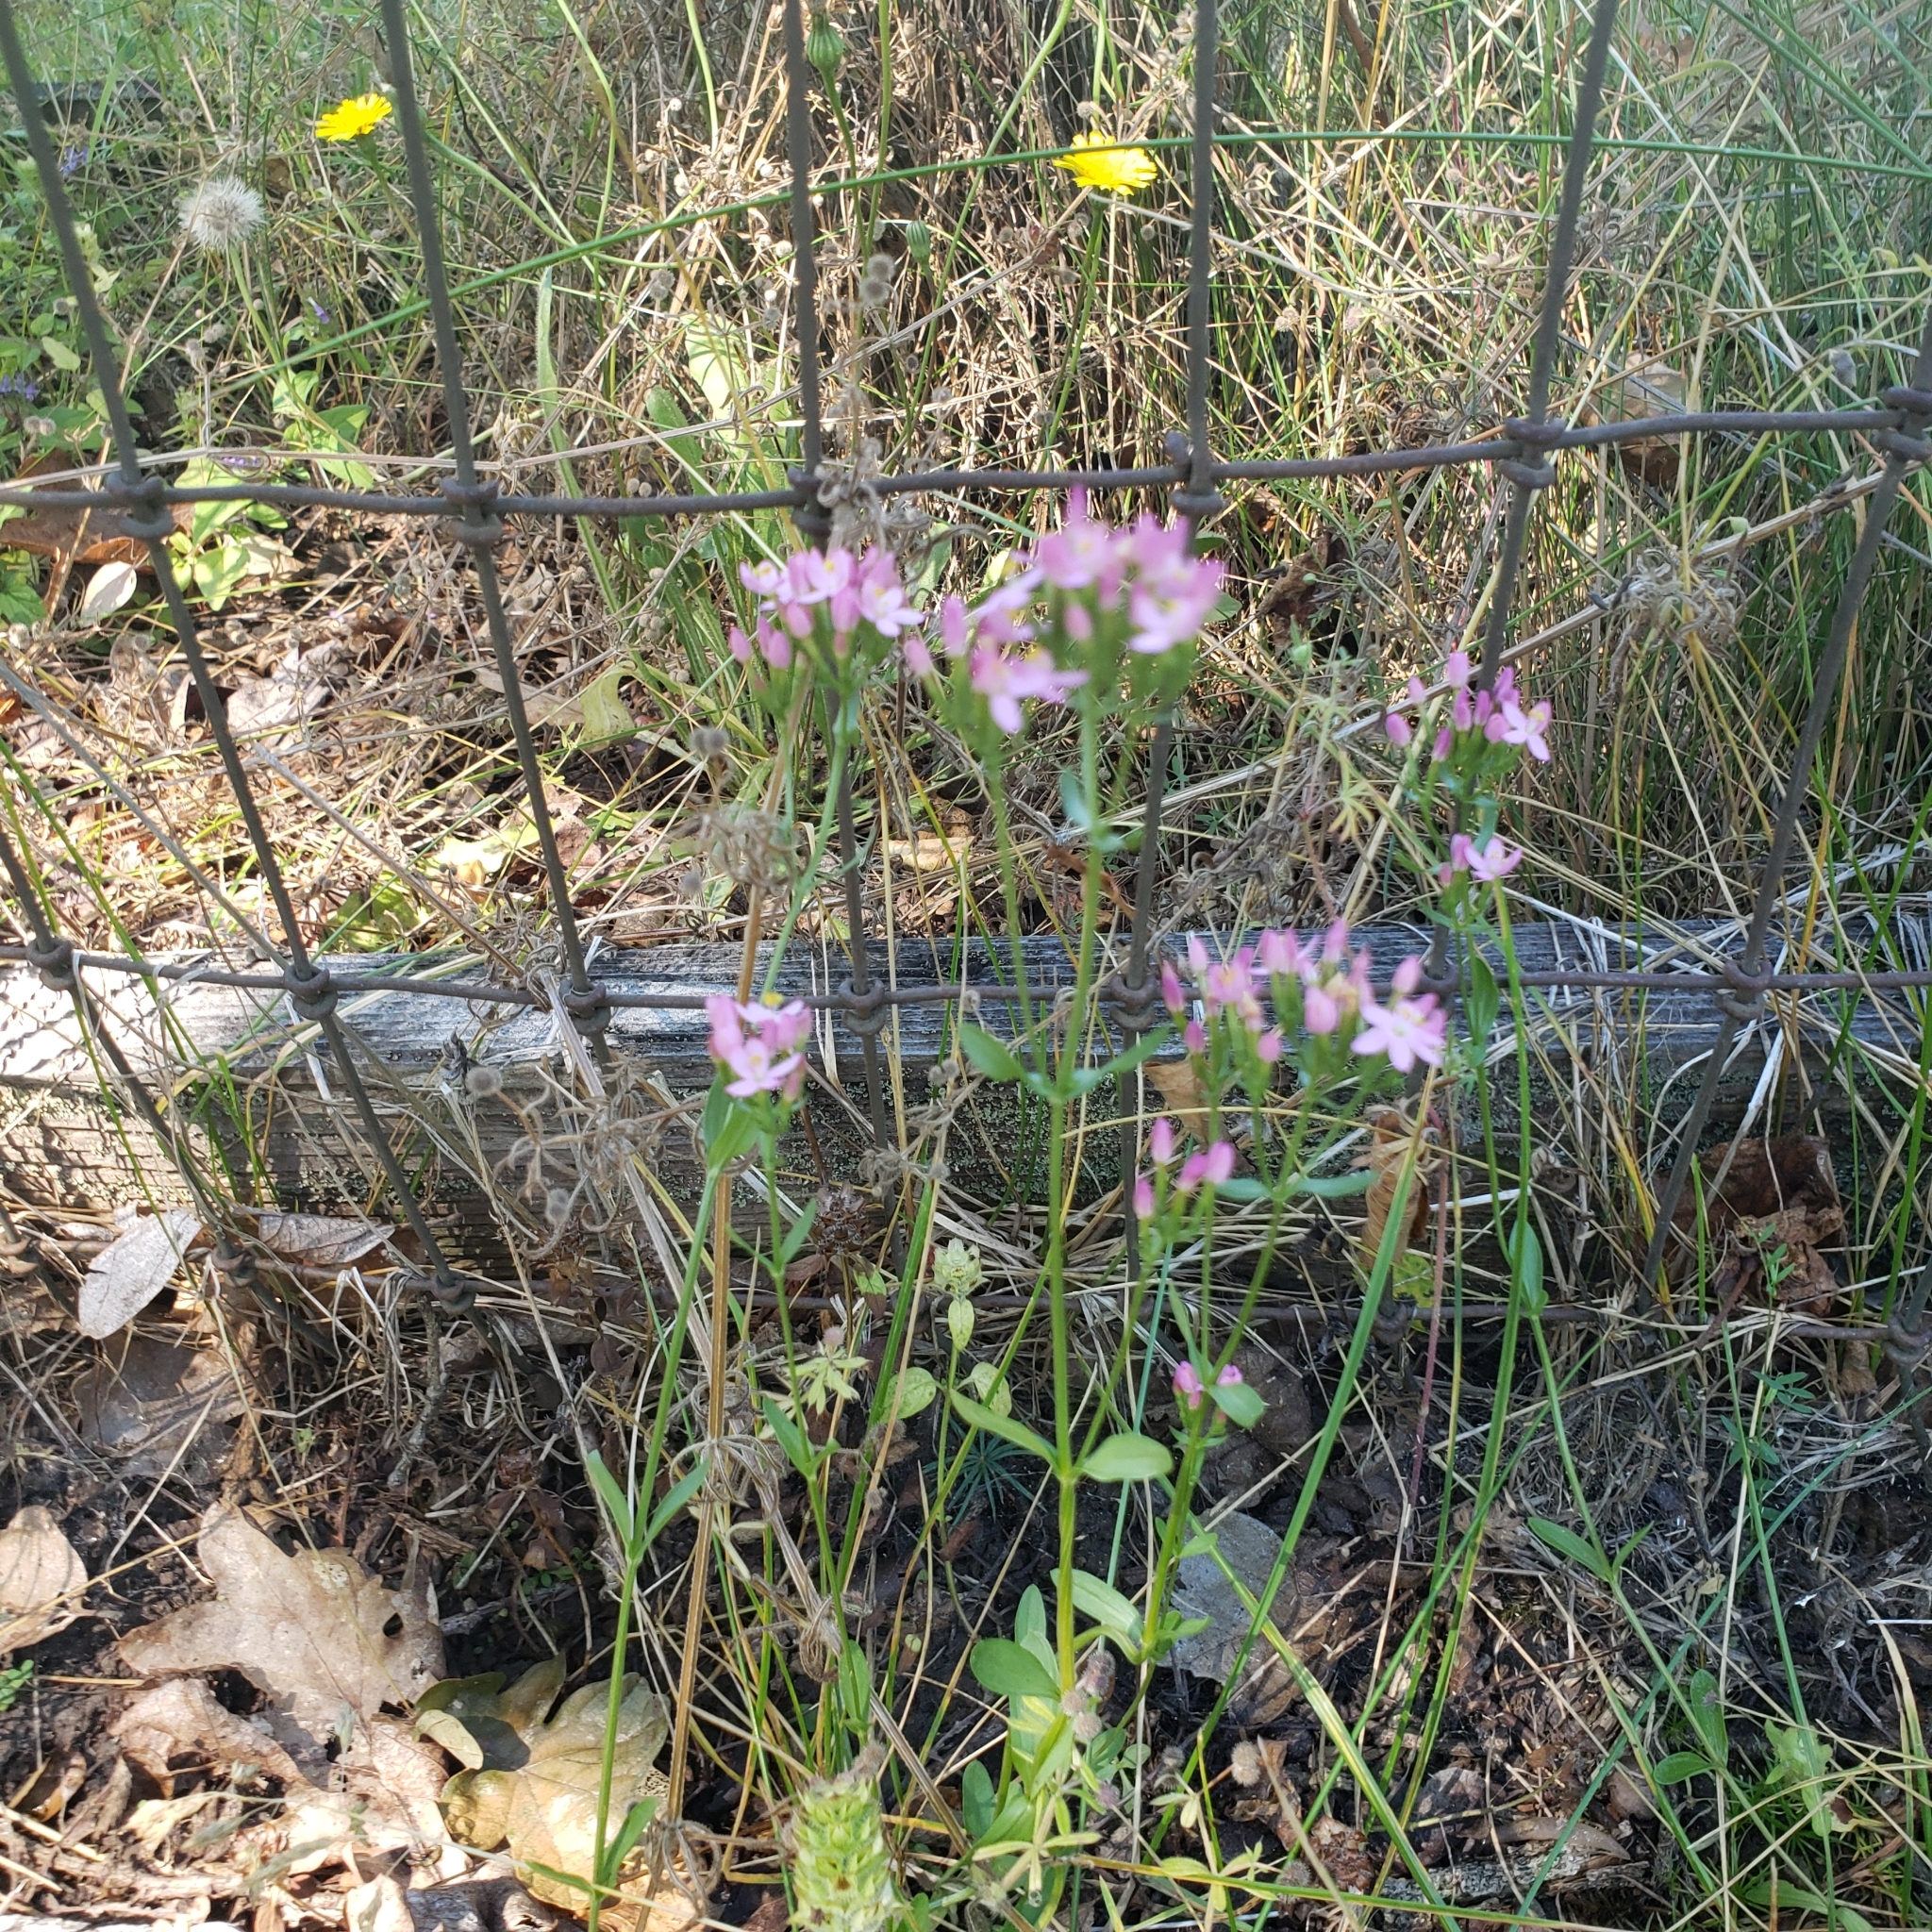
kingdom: Plantae
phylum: Tracheophyta
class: Magnoliopsida
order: Gentianales
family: Gentianaceae
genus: Centaurium
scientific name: Centaurium erythraea
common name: Common centaury
